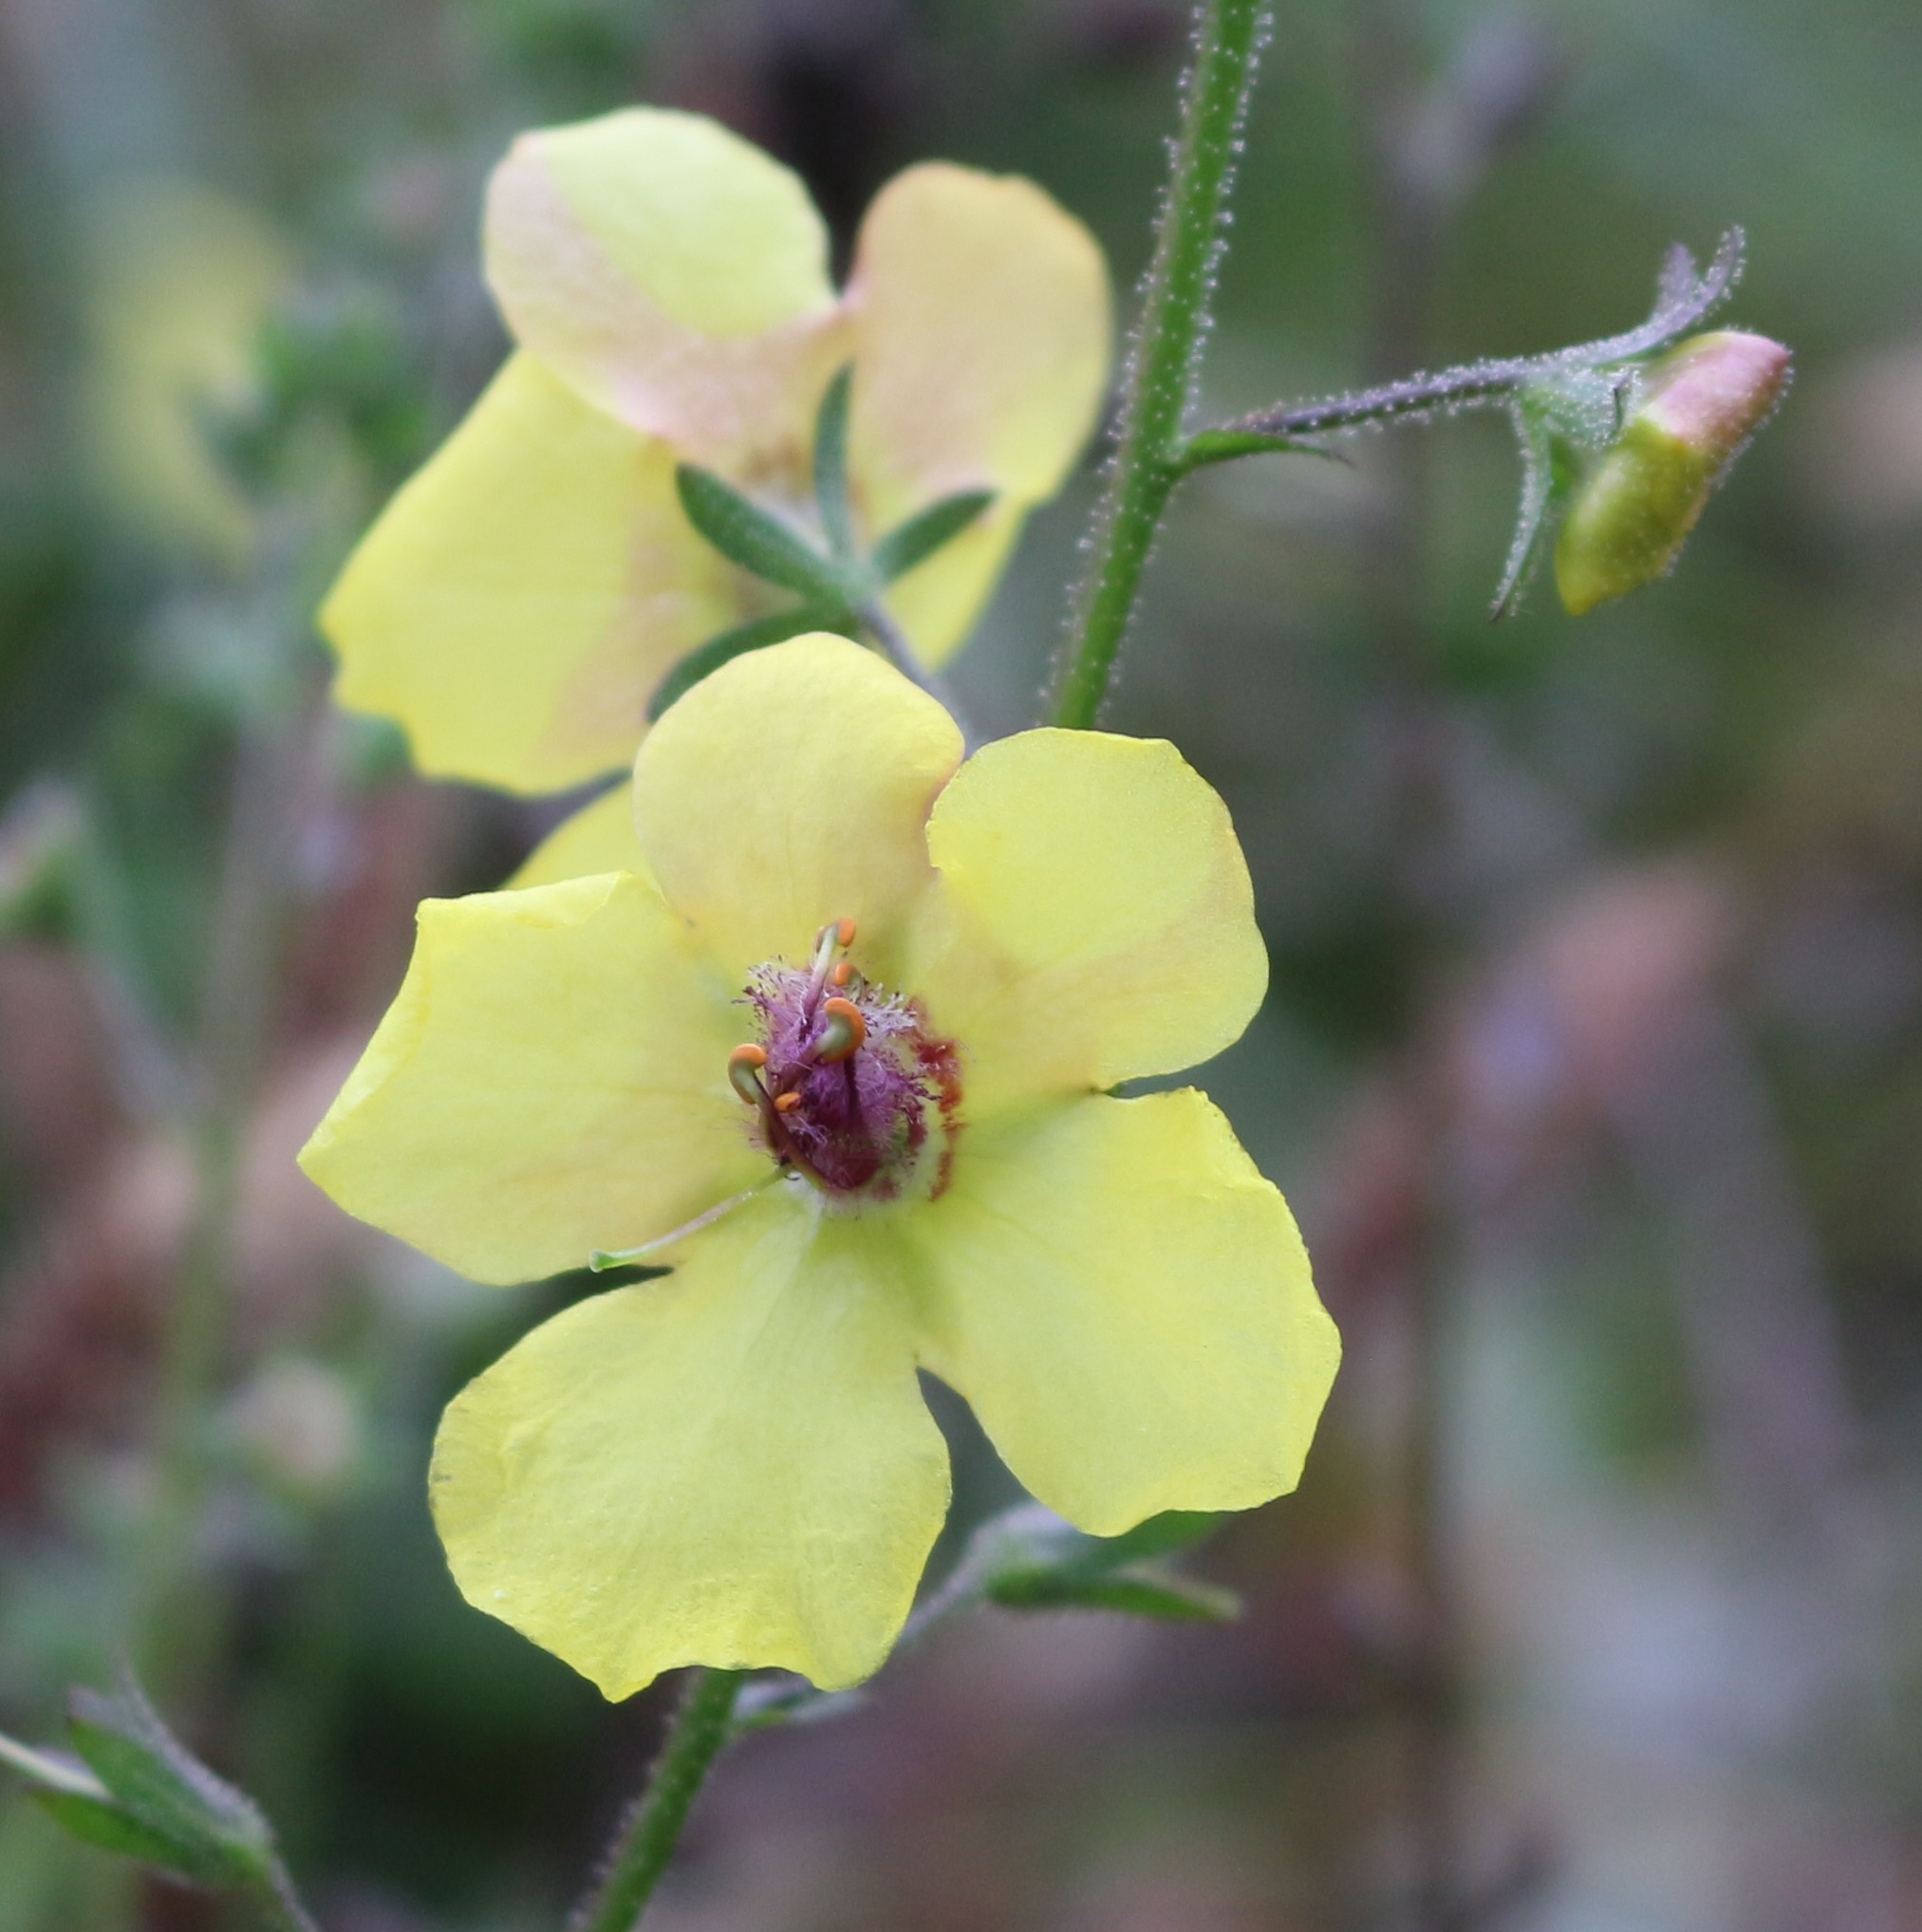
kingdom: Plantae
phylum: Tracheophyta
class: Magnoliopsida
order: Lamiales
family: Scrophulariaceae
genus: Verbascum
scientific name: Verbascum blattaria
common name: Moth mullein
